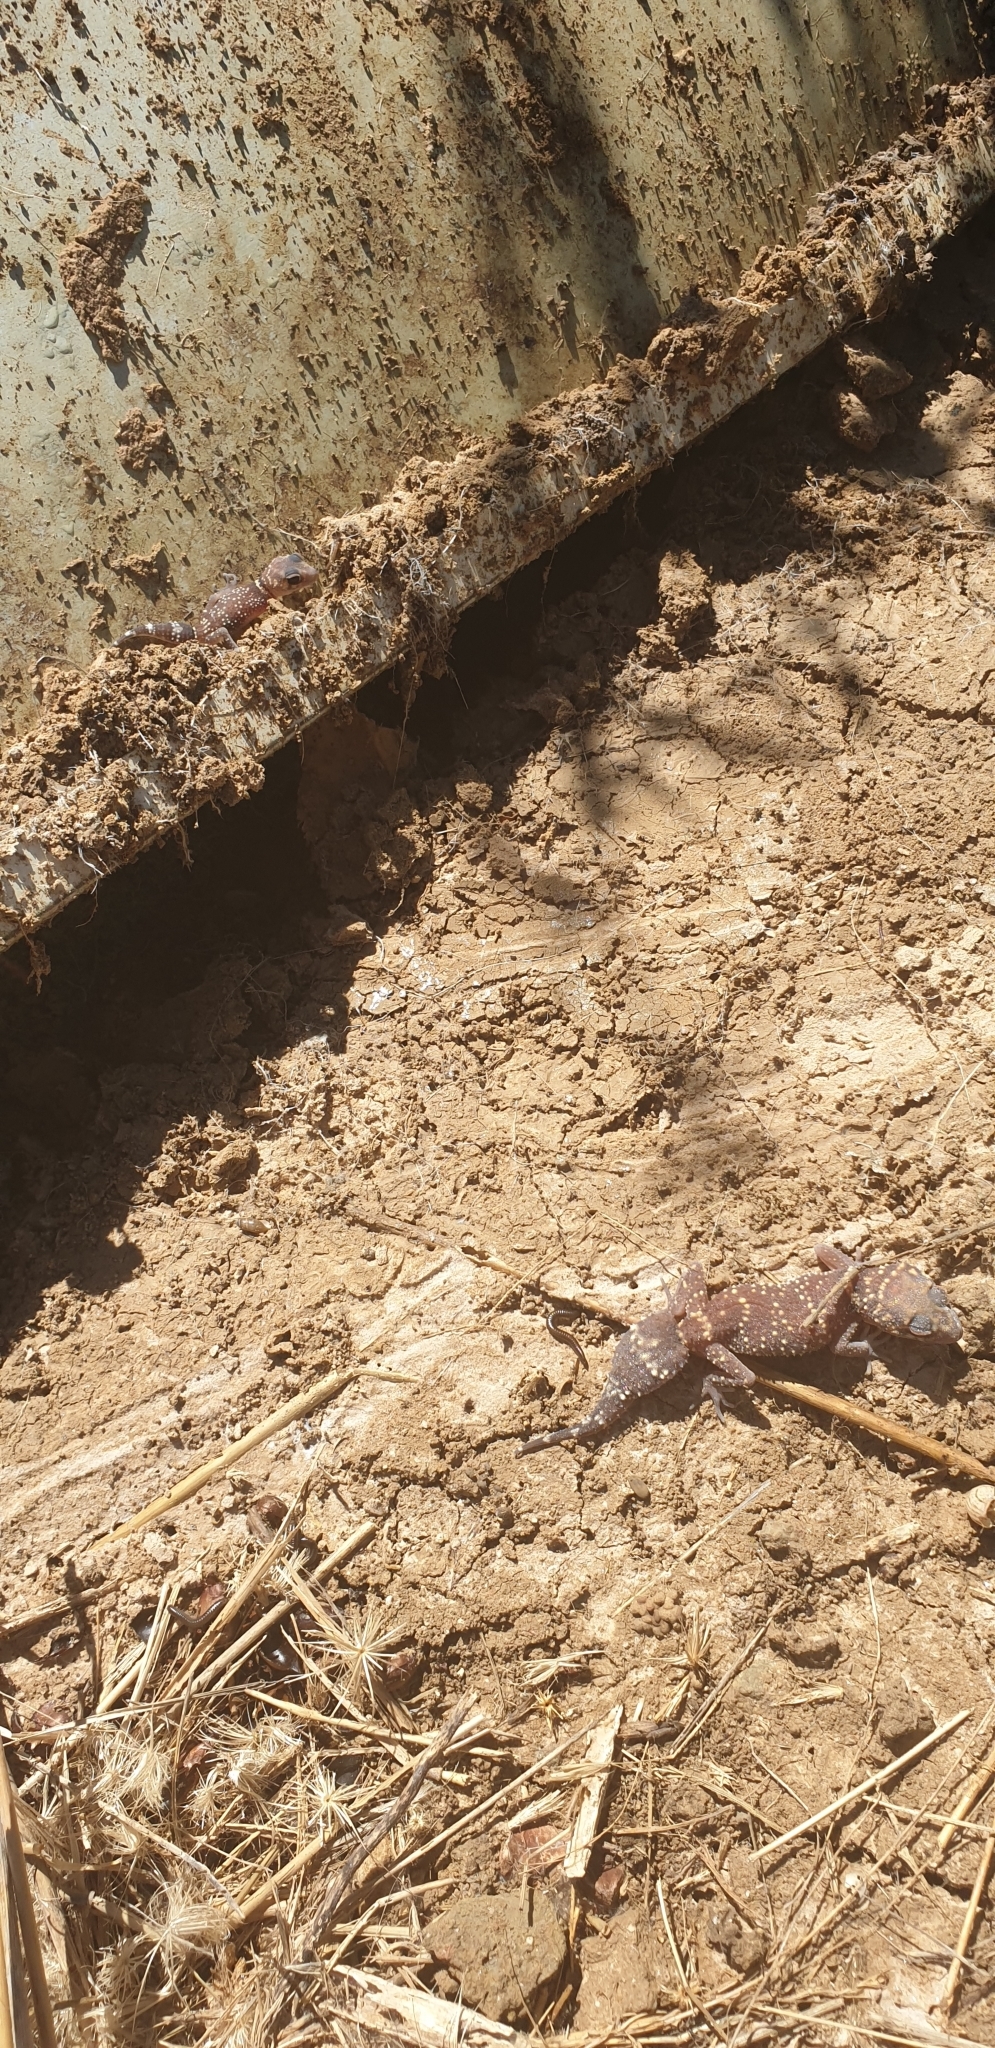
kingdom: Animalia
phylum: Chordata
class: Squamata
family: Carphodactylidae
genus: Underwoodisaurus
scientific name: Underwoodisaurus milii
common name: Barking gecko
